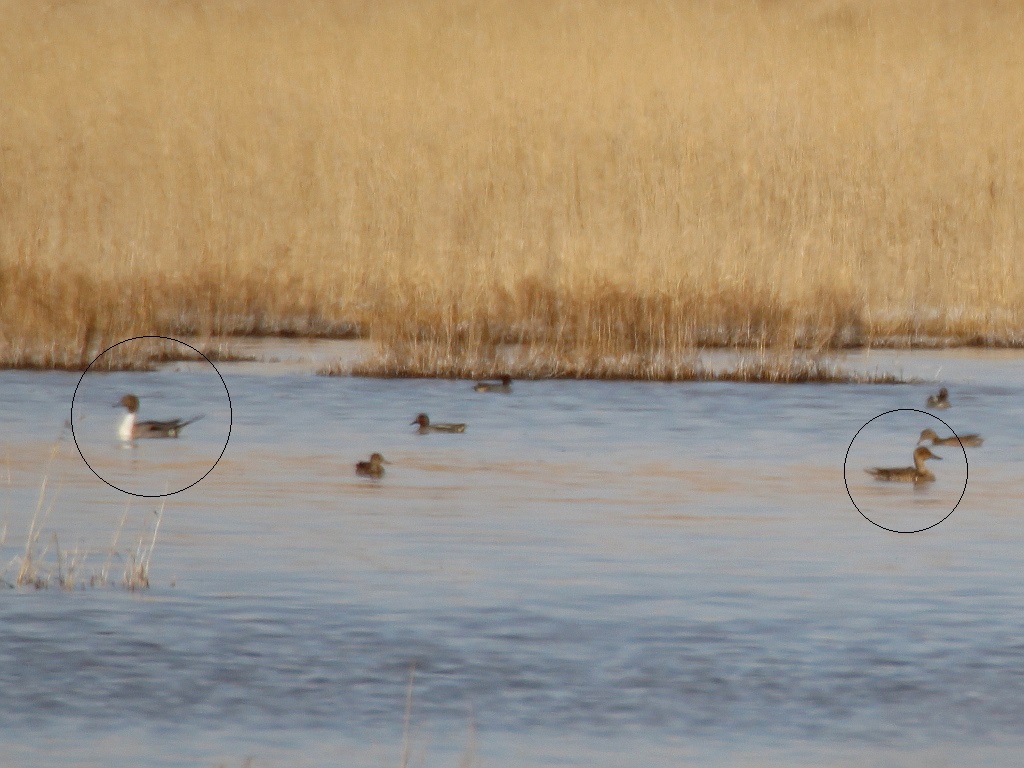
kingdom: Animalia
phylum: Chordata
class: Aves
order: Anseriformes
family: Anatidae
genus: Anas
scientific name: Anas acuta
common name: Northern pintail
